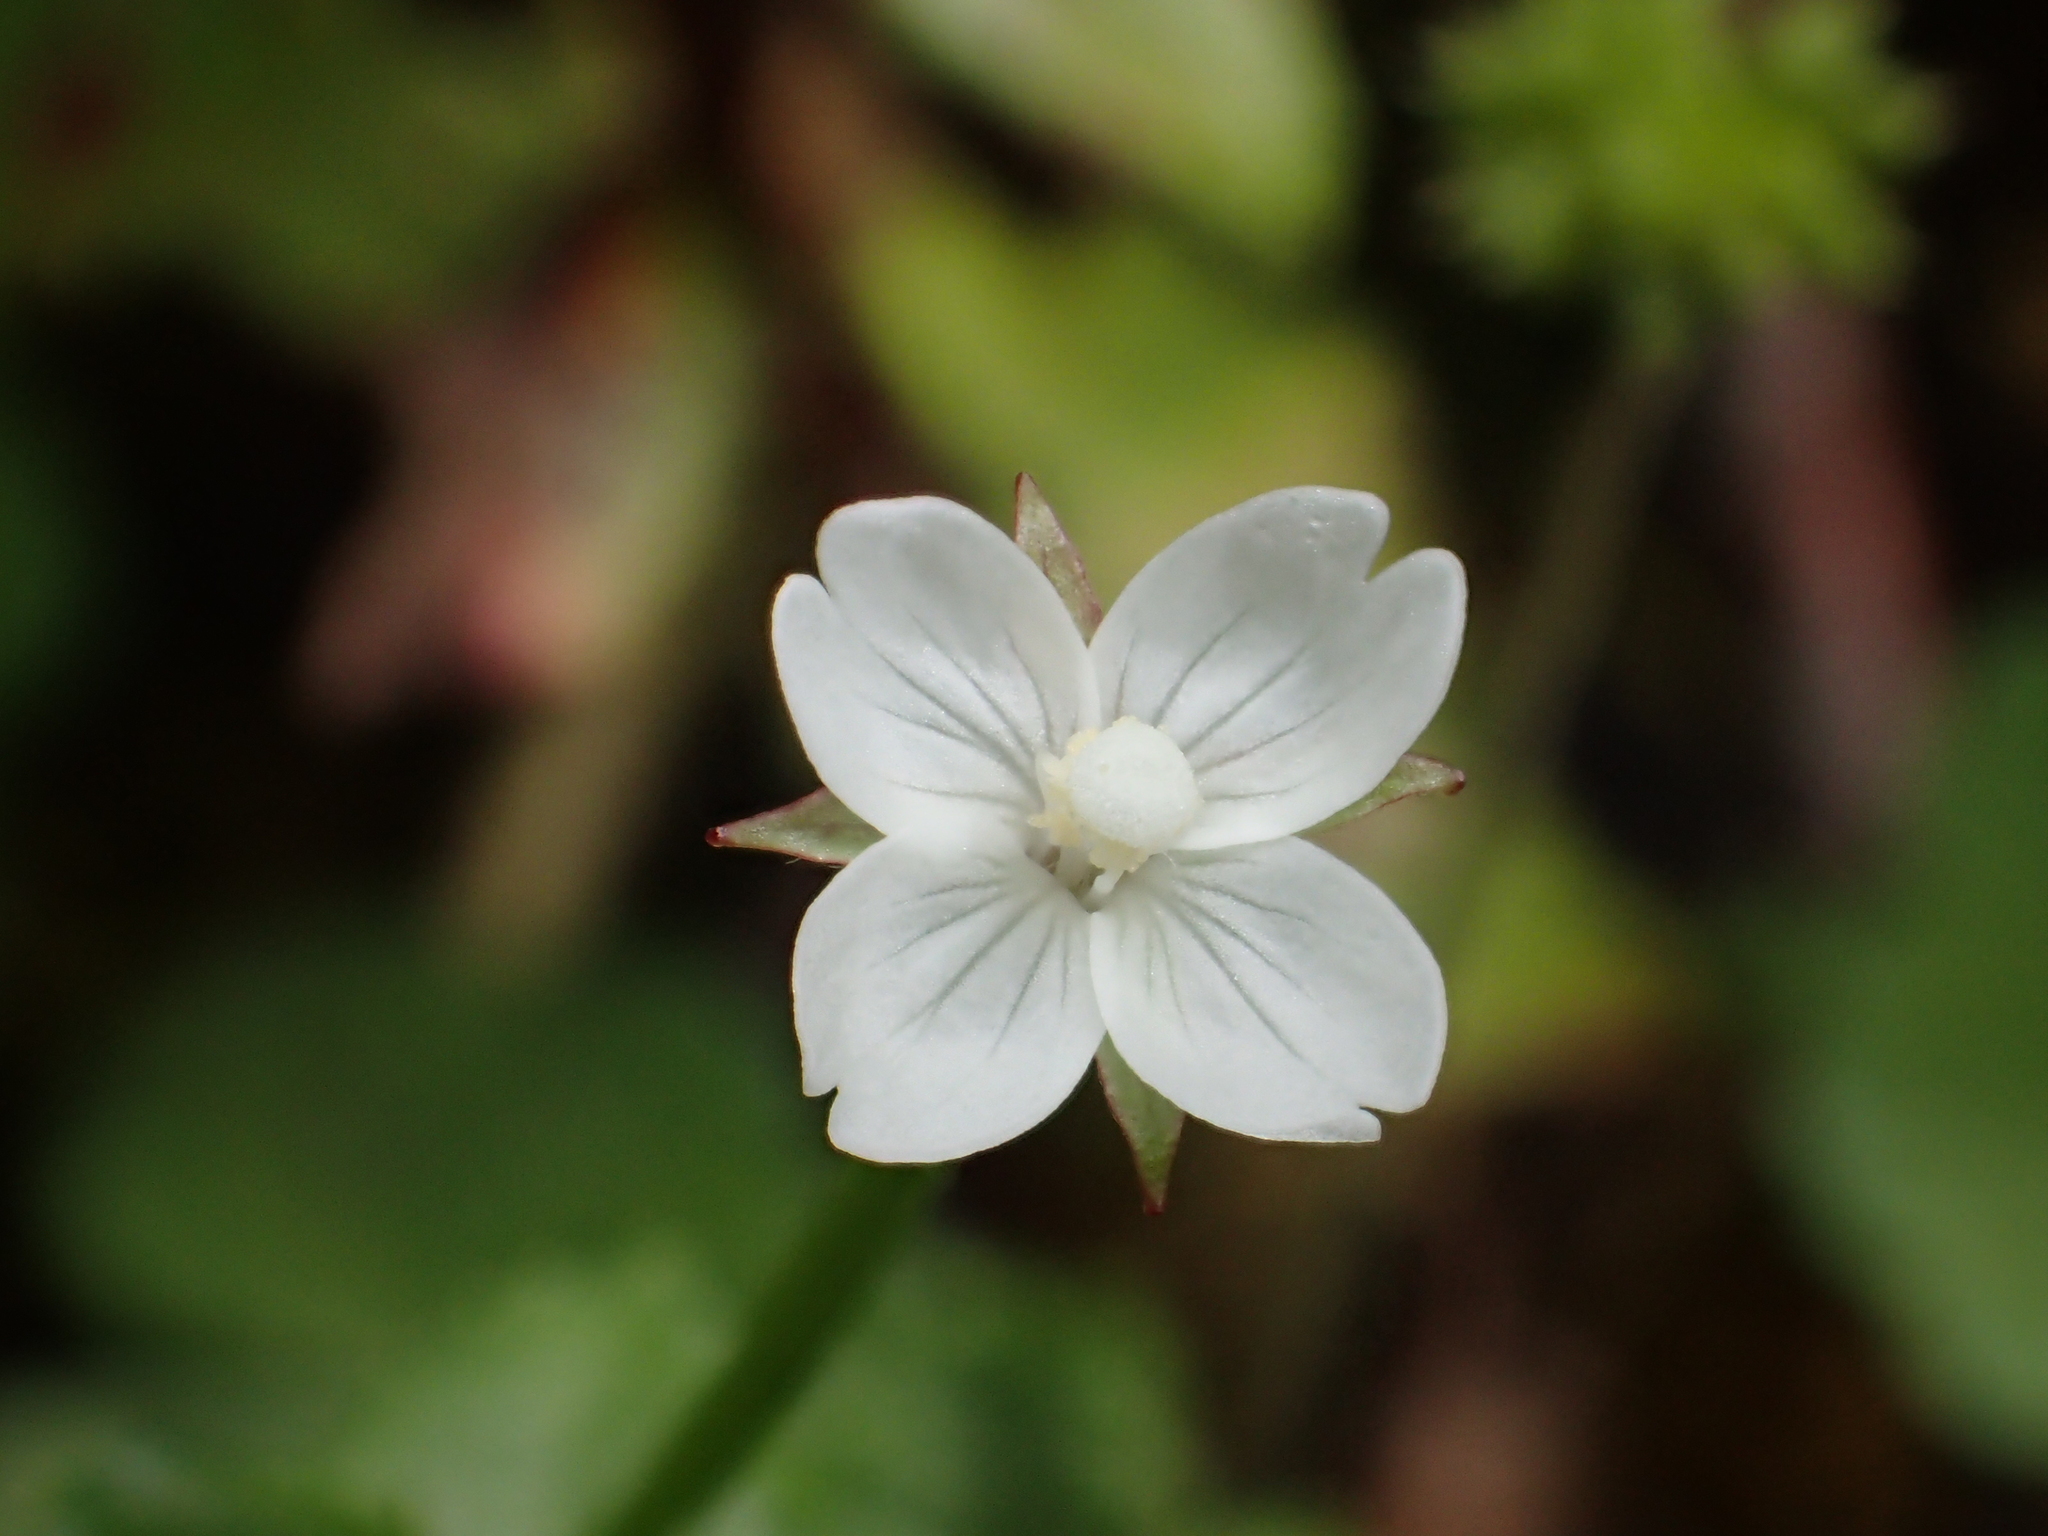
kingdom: Plantae
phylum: Tracheophyta
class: Magnoliopsida
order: Myrtales
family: Onagraceae
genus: Epilobium
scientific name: Epilobium amurense
